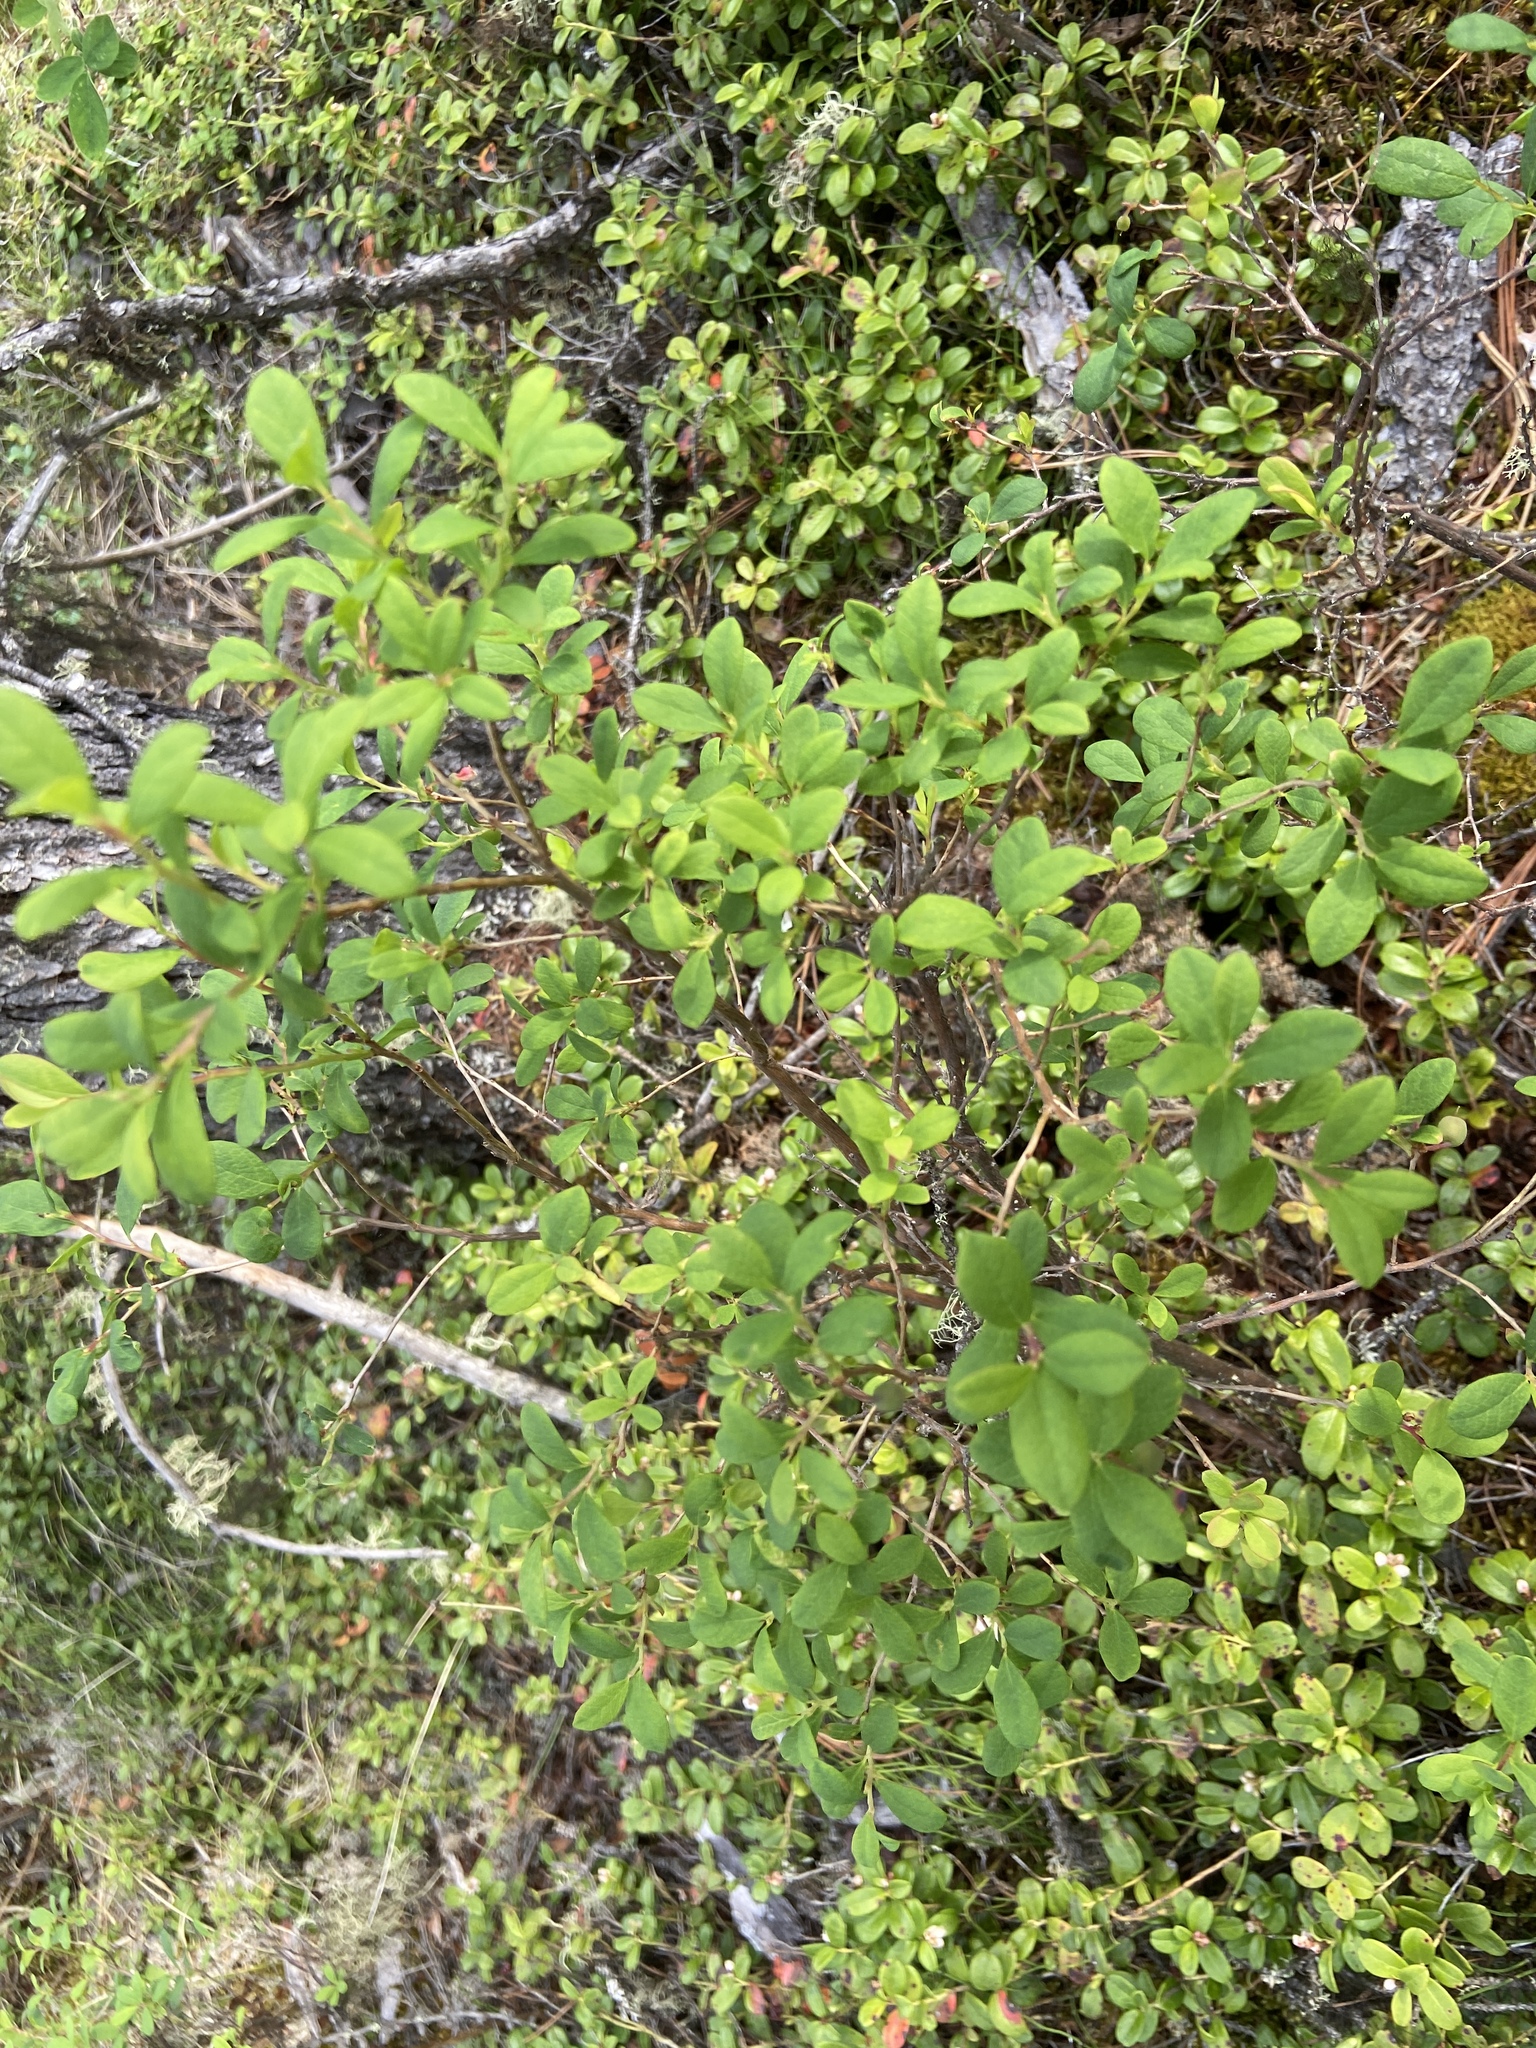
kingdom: Plantae
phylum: Tracheophyta
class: Magnoliopsida
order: Ericales
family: Ericaceae
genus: Vaccinium
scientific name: Vaccinium uliginosum
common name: Bog bilberry
